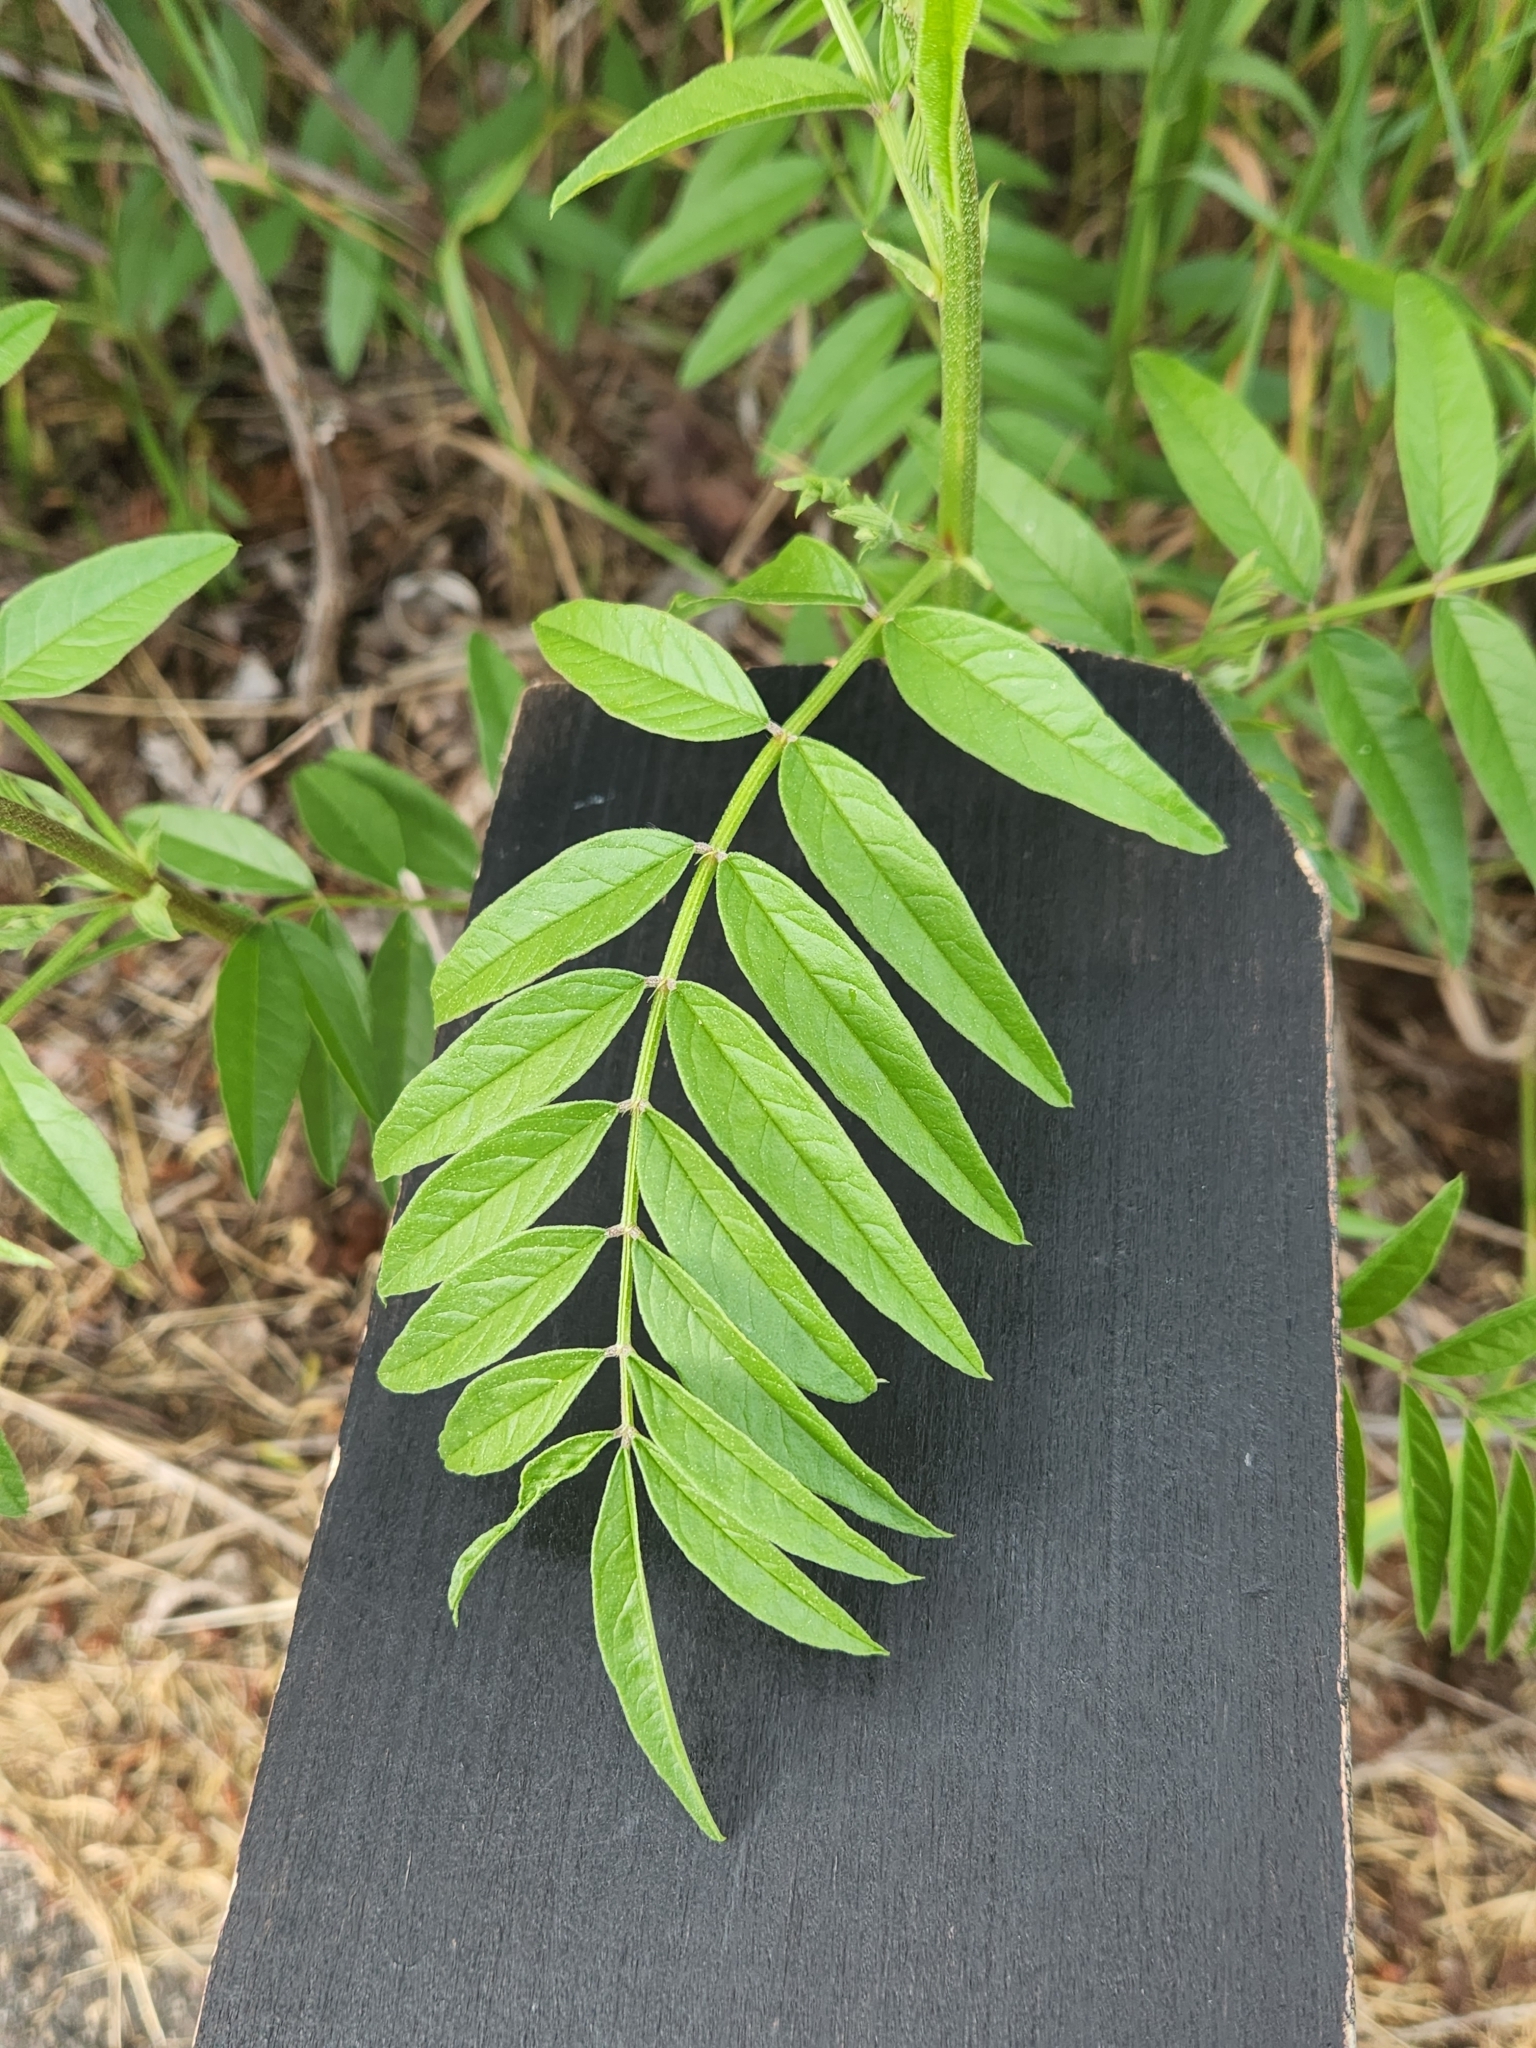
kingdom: Plantae
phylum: Tracheophyta
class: Magnoliopsida
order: Fabales
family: Fabaceae
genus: Glycyrrhiza
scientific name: Glycyrrhiza lepidota
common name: American liquorice
